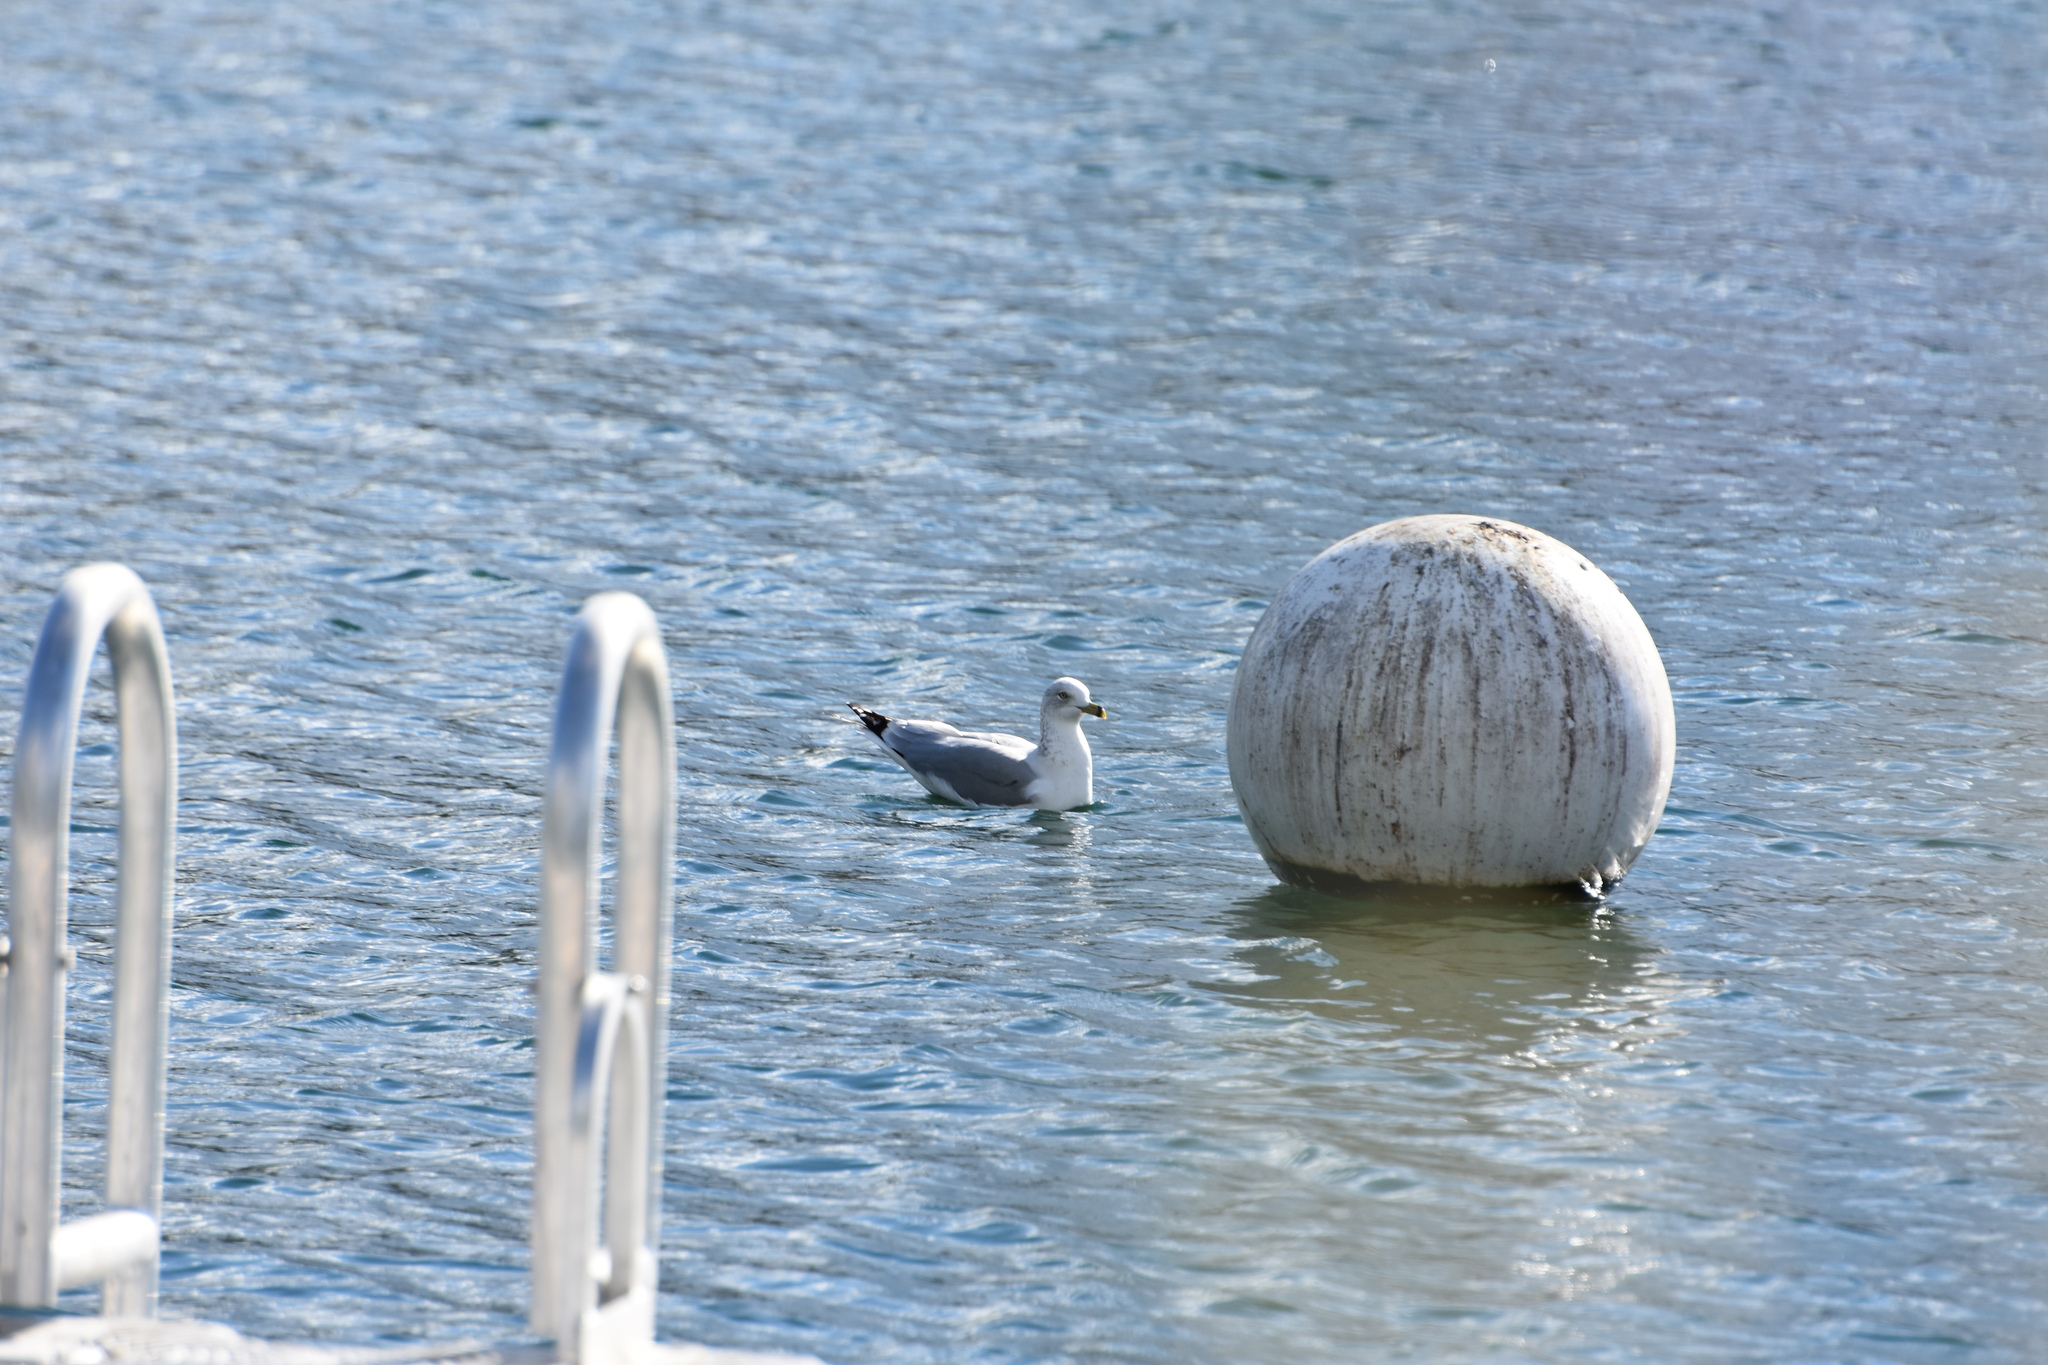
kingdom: Animalia
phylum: Chordata
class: Aves
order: Charadriiformes
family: Laridae
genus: Leucophaeus
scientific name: Leucophaeus atricilla
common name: Laughing gull
